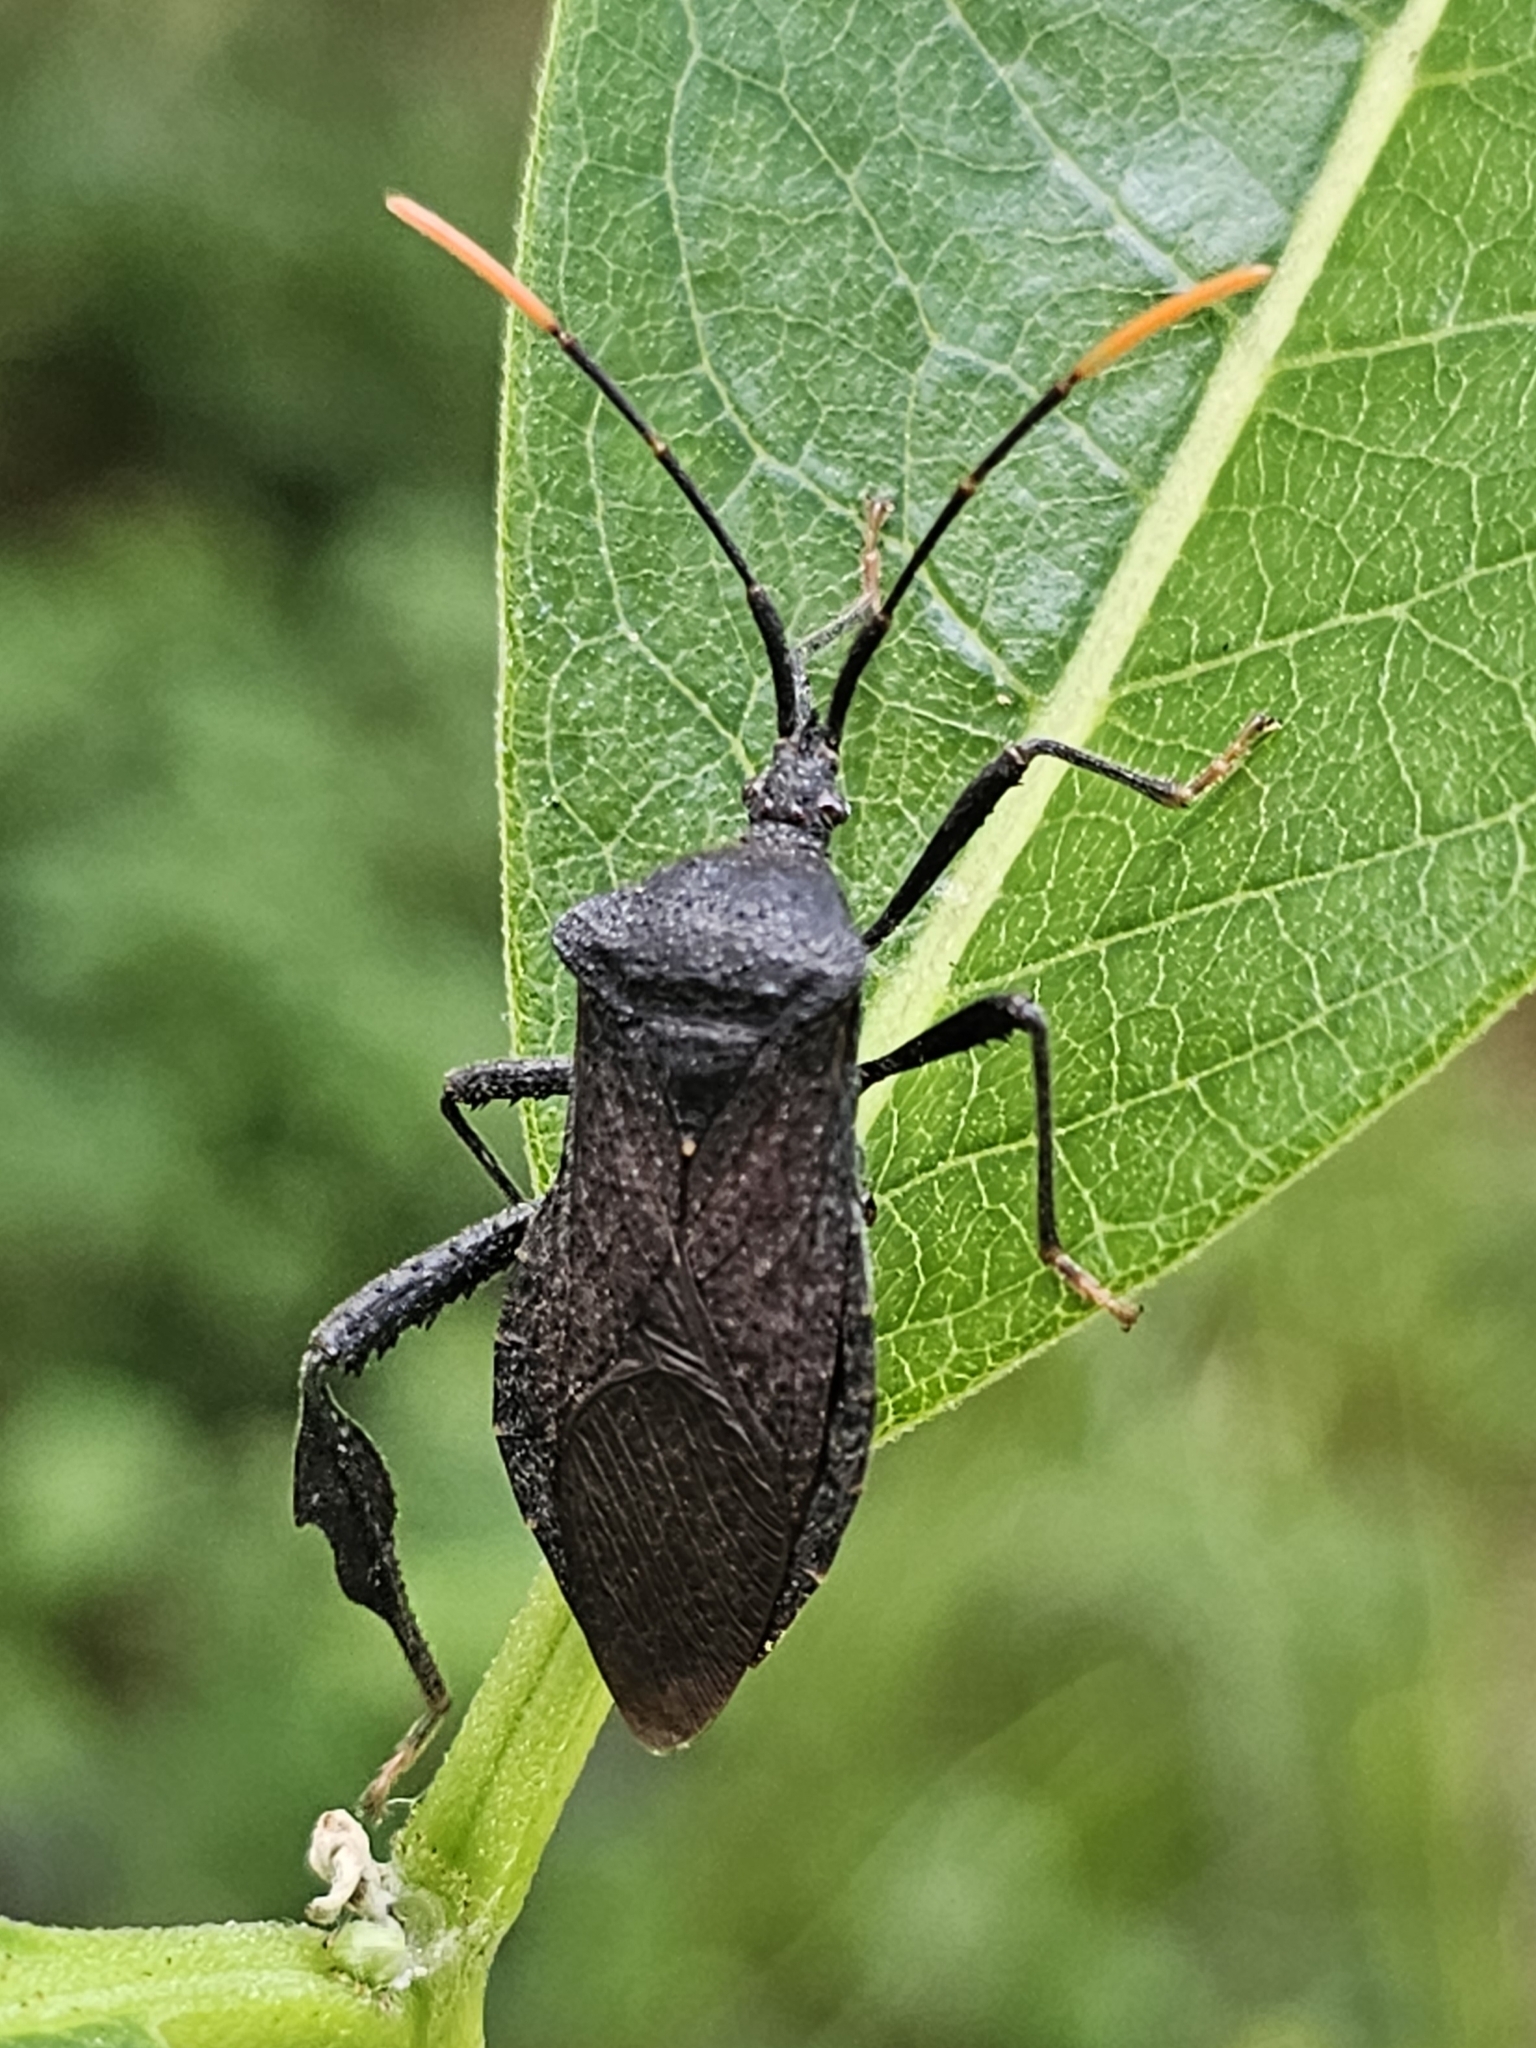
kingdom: Animalia
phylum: Arthropoda
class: Insecta
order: Hemiptera
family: Coreidae
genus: Acanthocephala
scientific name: Acanthocephala terminalis
